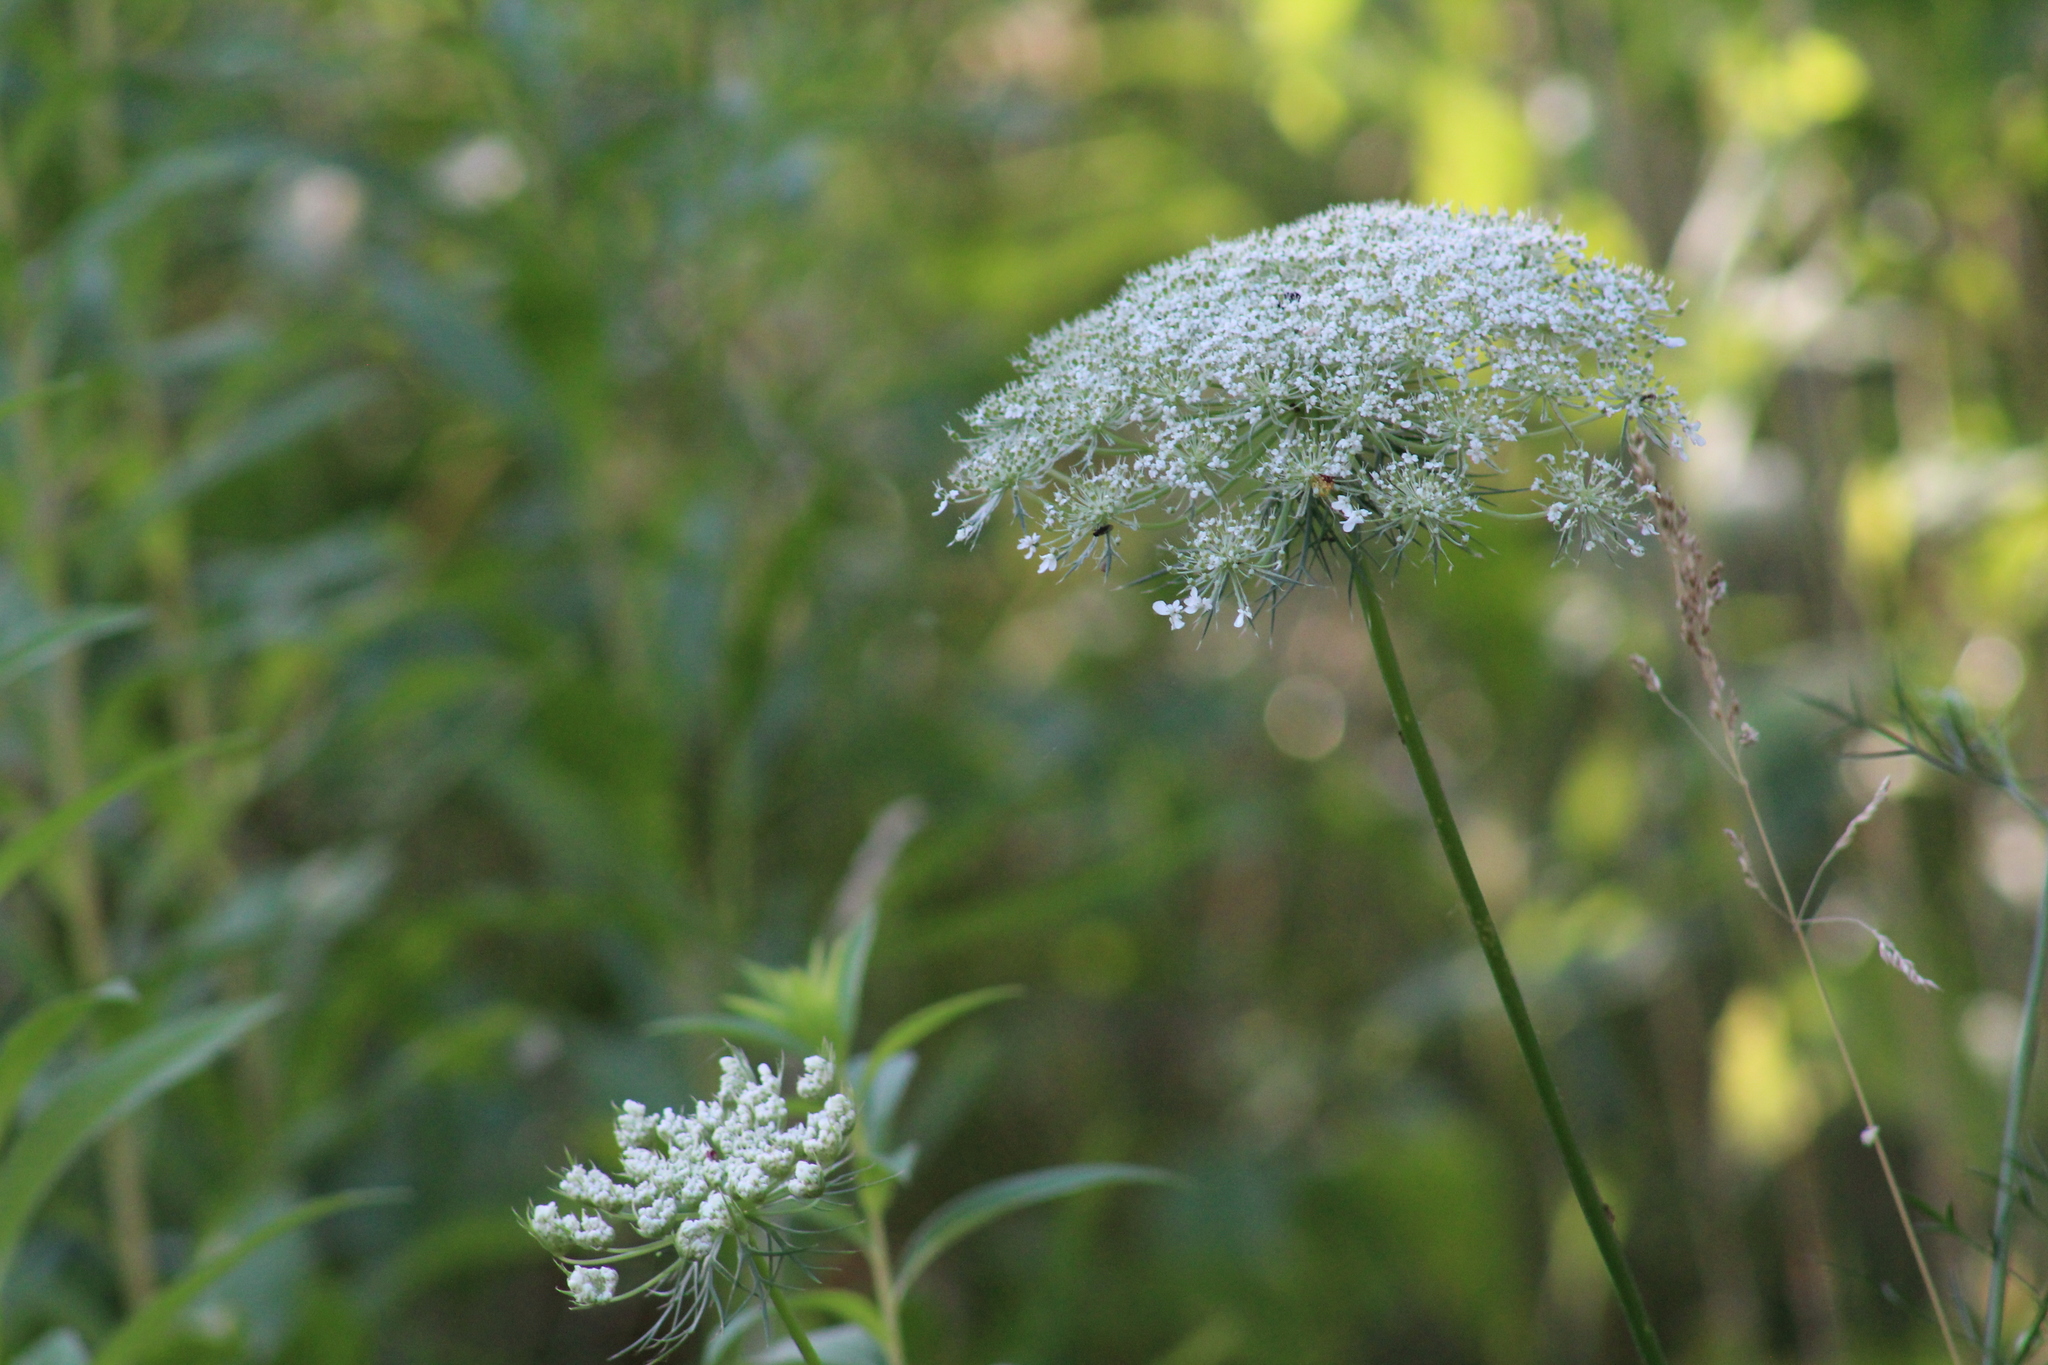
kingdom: Plantae
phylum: Tracheophyta
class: Magnoliopsida
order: Apiales
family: Apiaceae
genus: Daucus
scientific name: Daucus carota
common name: Wild carrot
